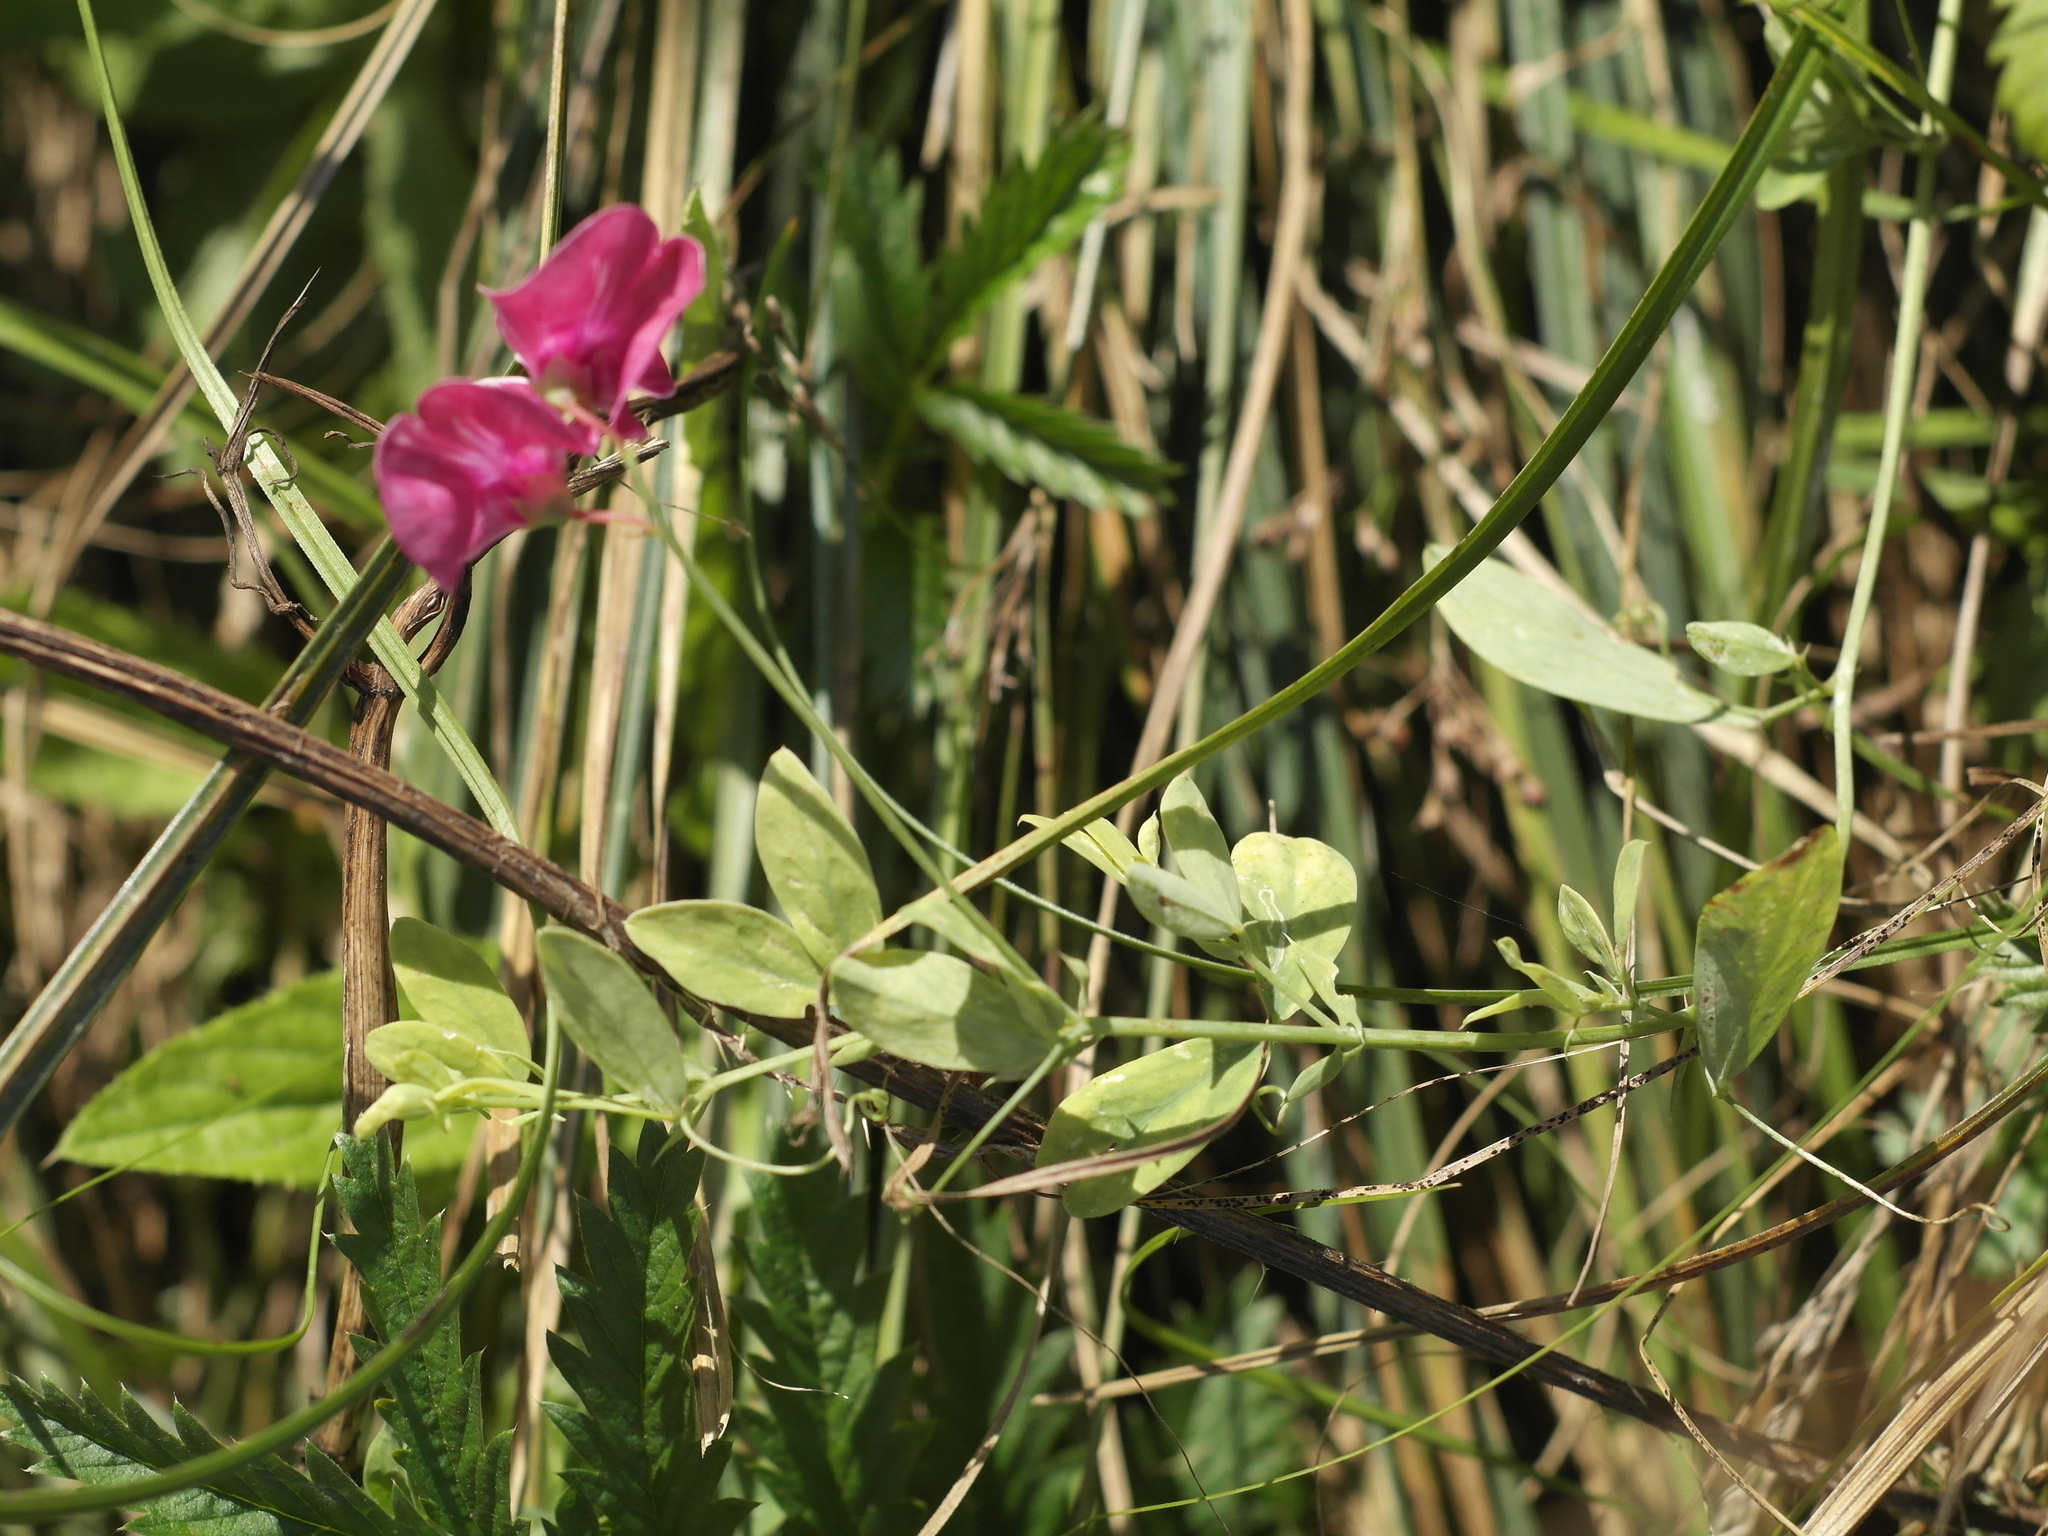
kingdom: Plantae
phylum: Tracheophyta
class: Magnoliopsida
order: Fabales
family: Fabaceae
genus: Lathyrus
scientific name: Lathyrus tuberosus
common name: Tuberous pea
